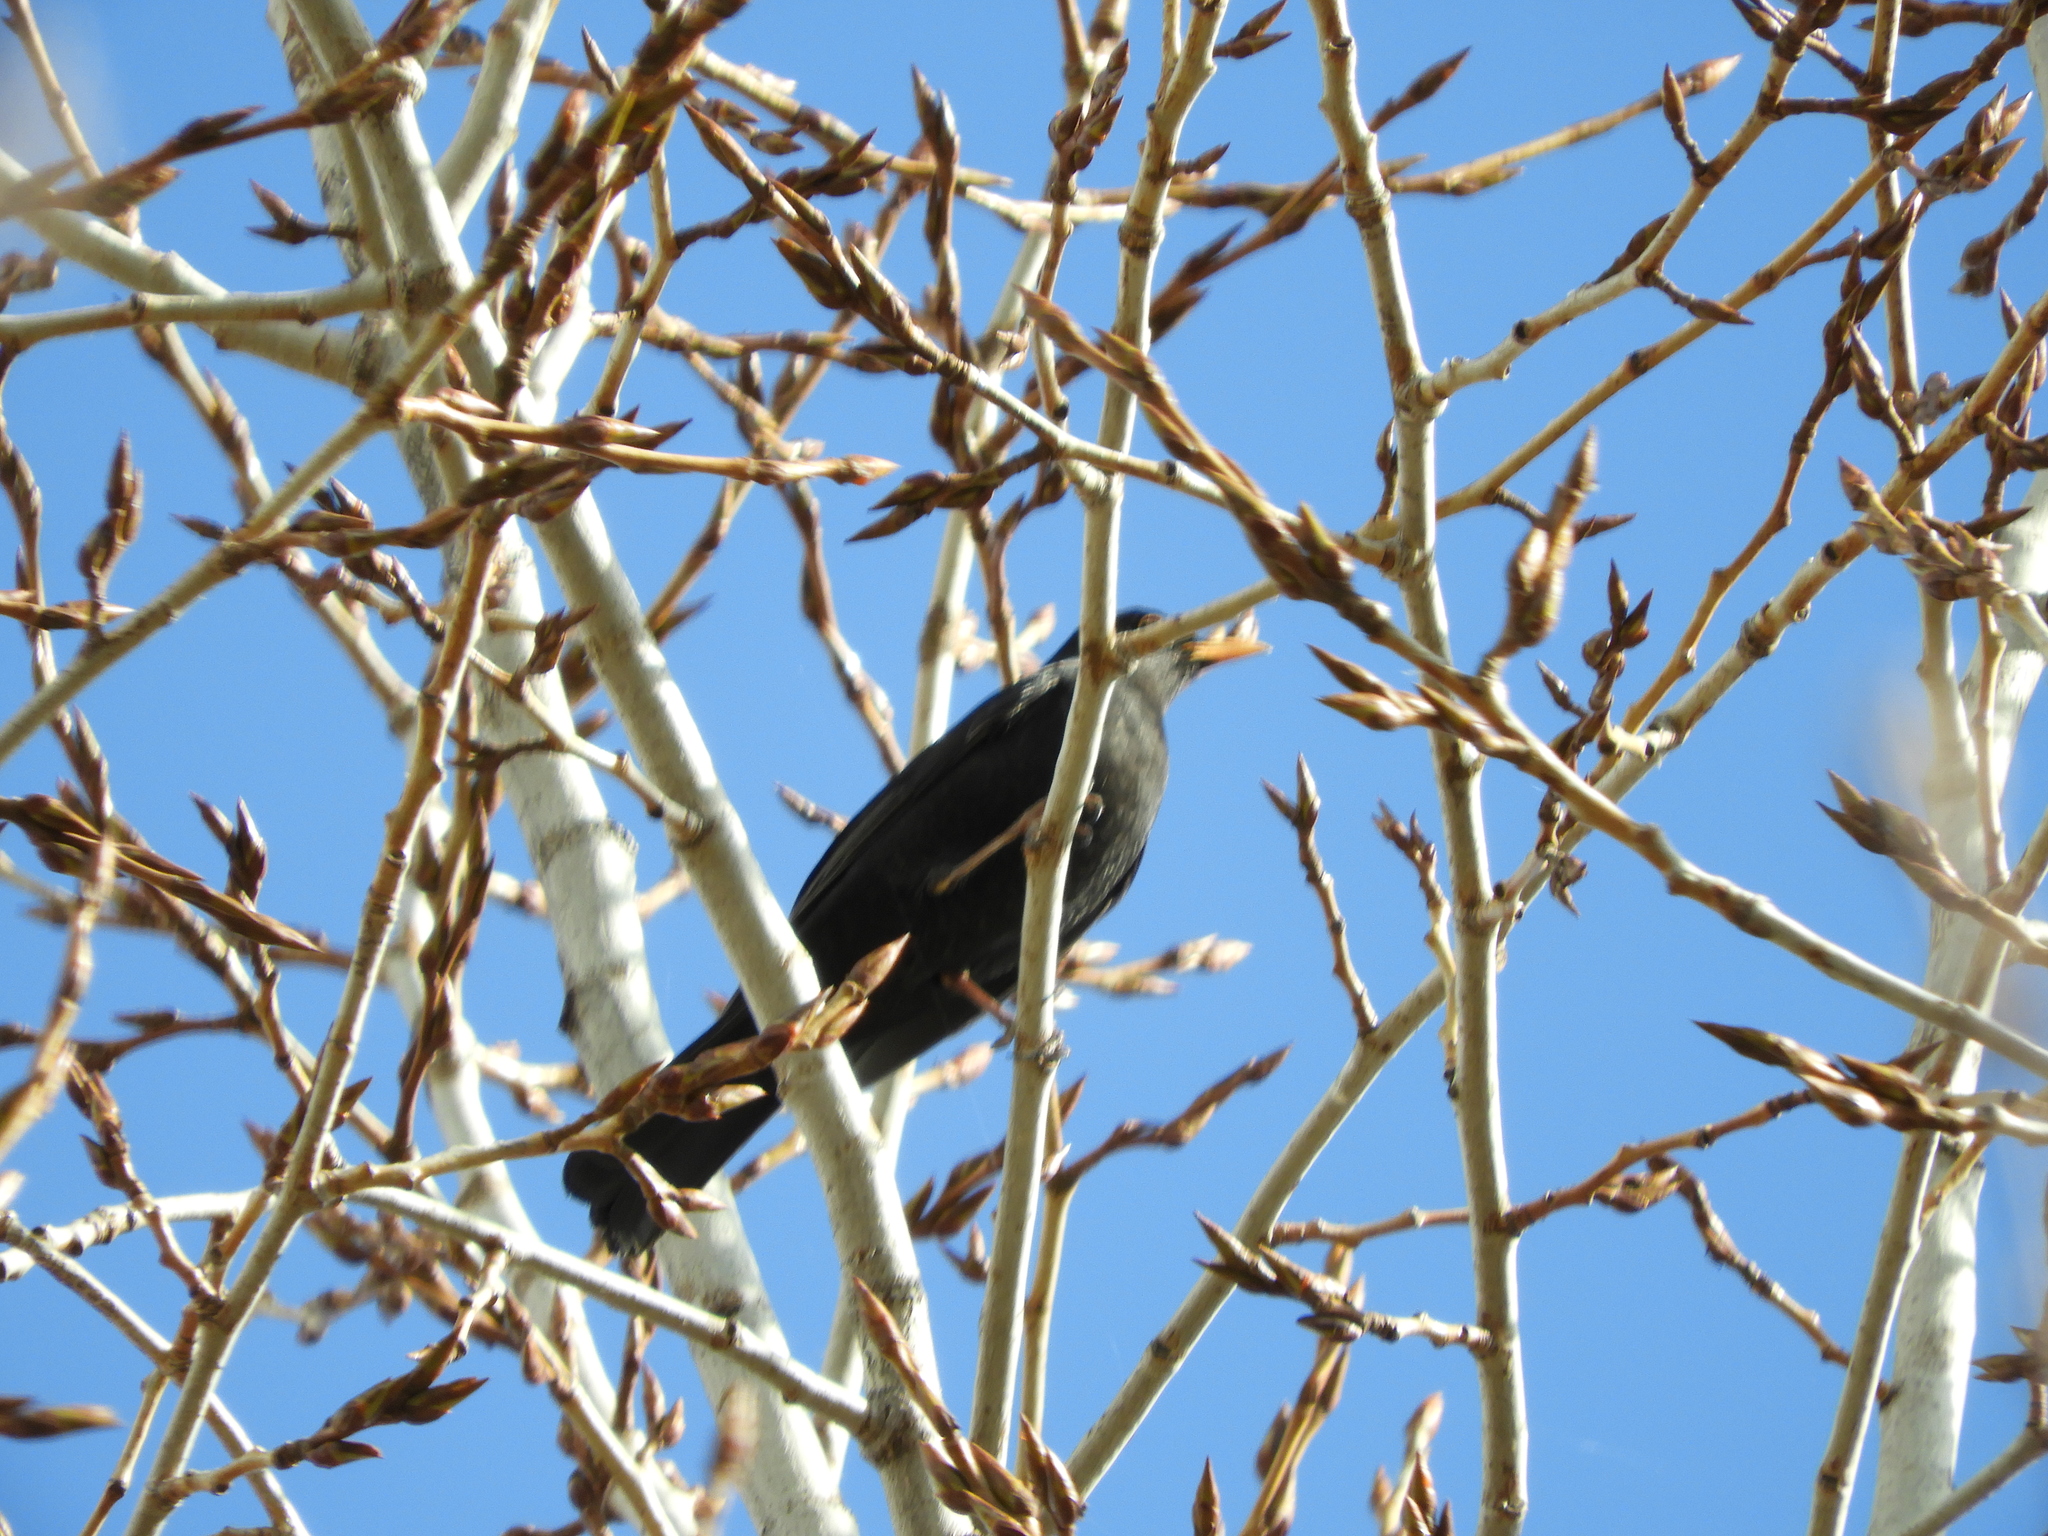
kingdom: Animalia
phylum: Chordata
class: Aves
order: Passeriformes
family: Turdidae
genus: Turdus
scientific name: Turdus merula
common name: Common blackbird
